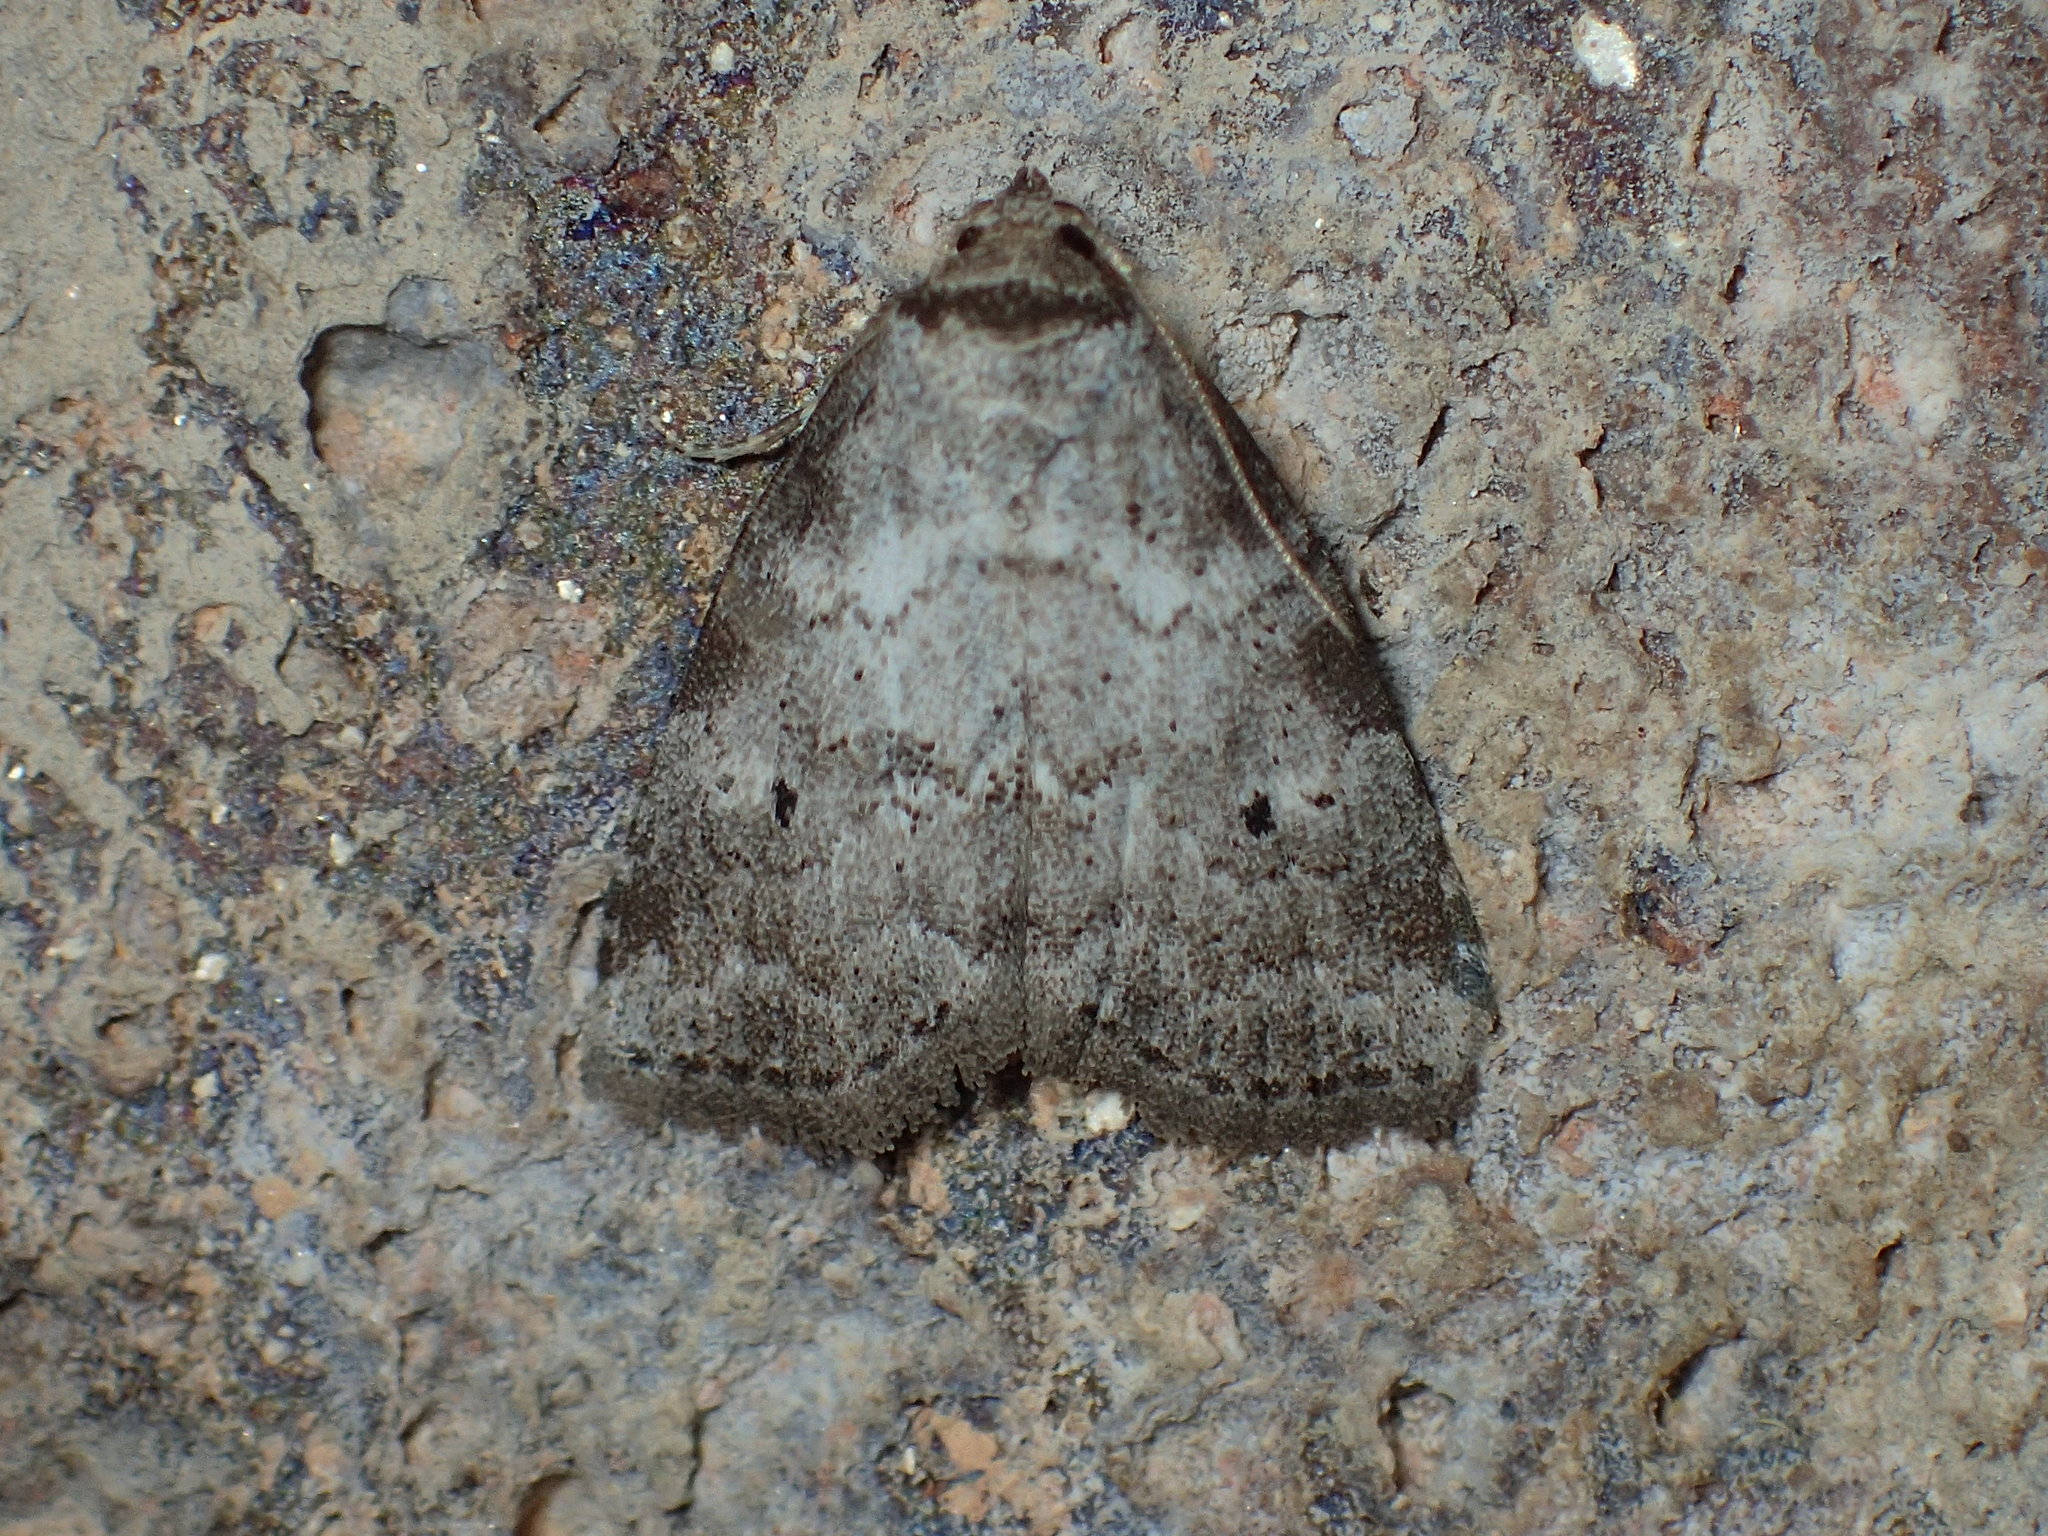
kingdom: Animalia
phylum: Arthropoda
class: Insecta
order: Lepidoptera
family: Erebidae
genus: Hyperstrotia
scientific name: Hyperstrotia pervertens
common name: Dotted graylet
